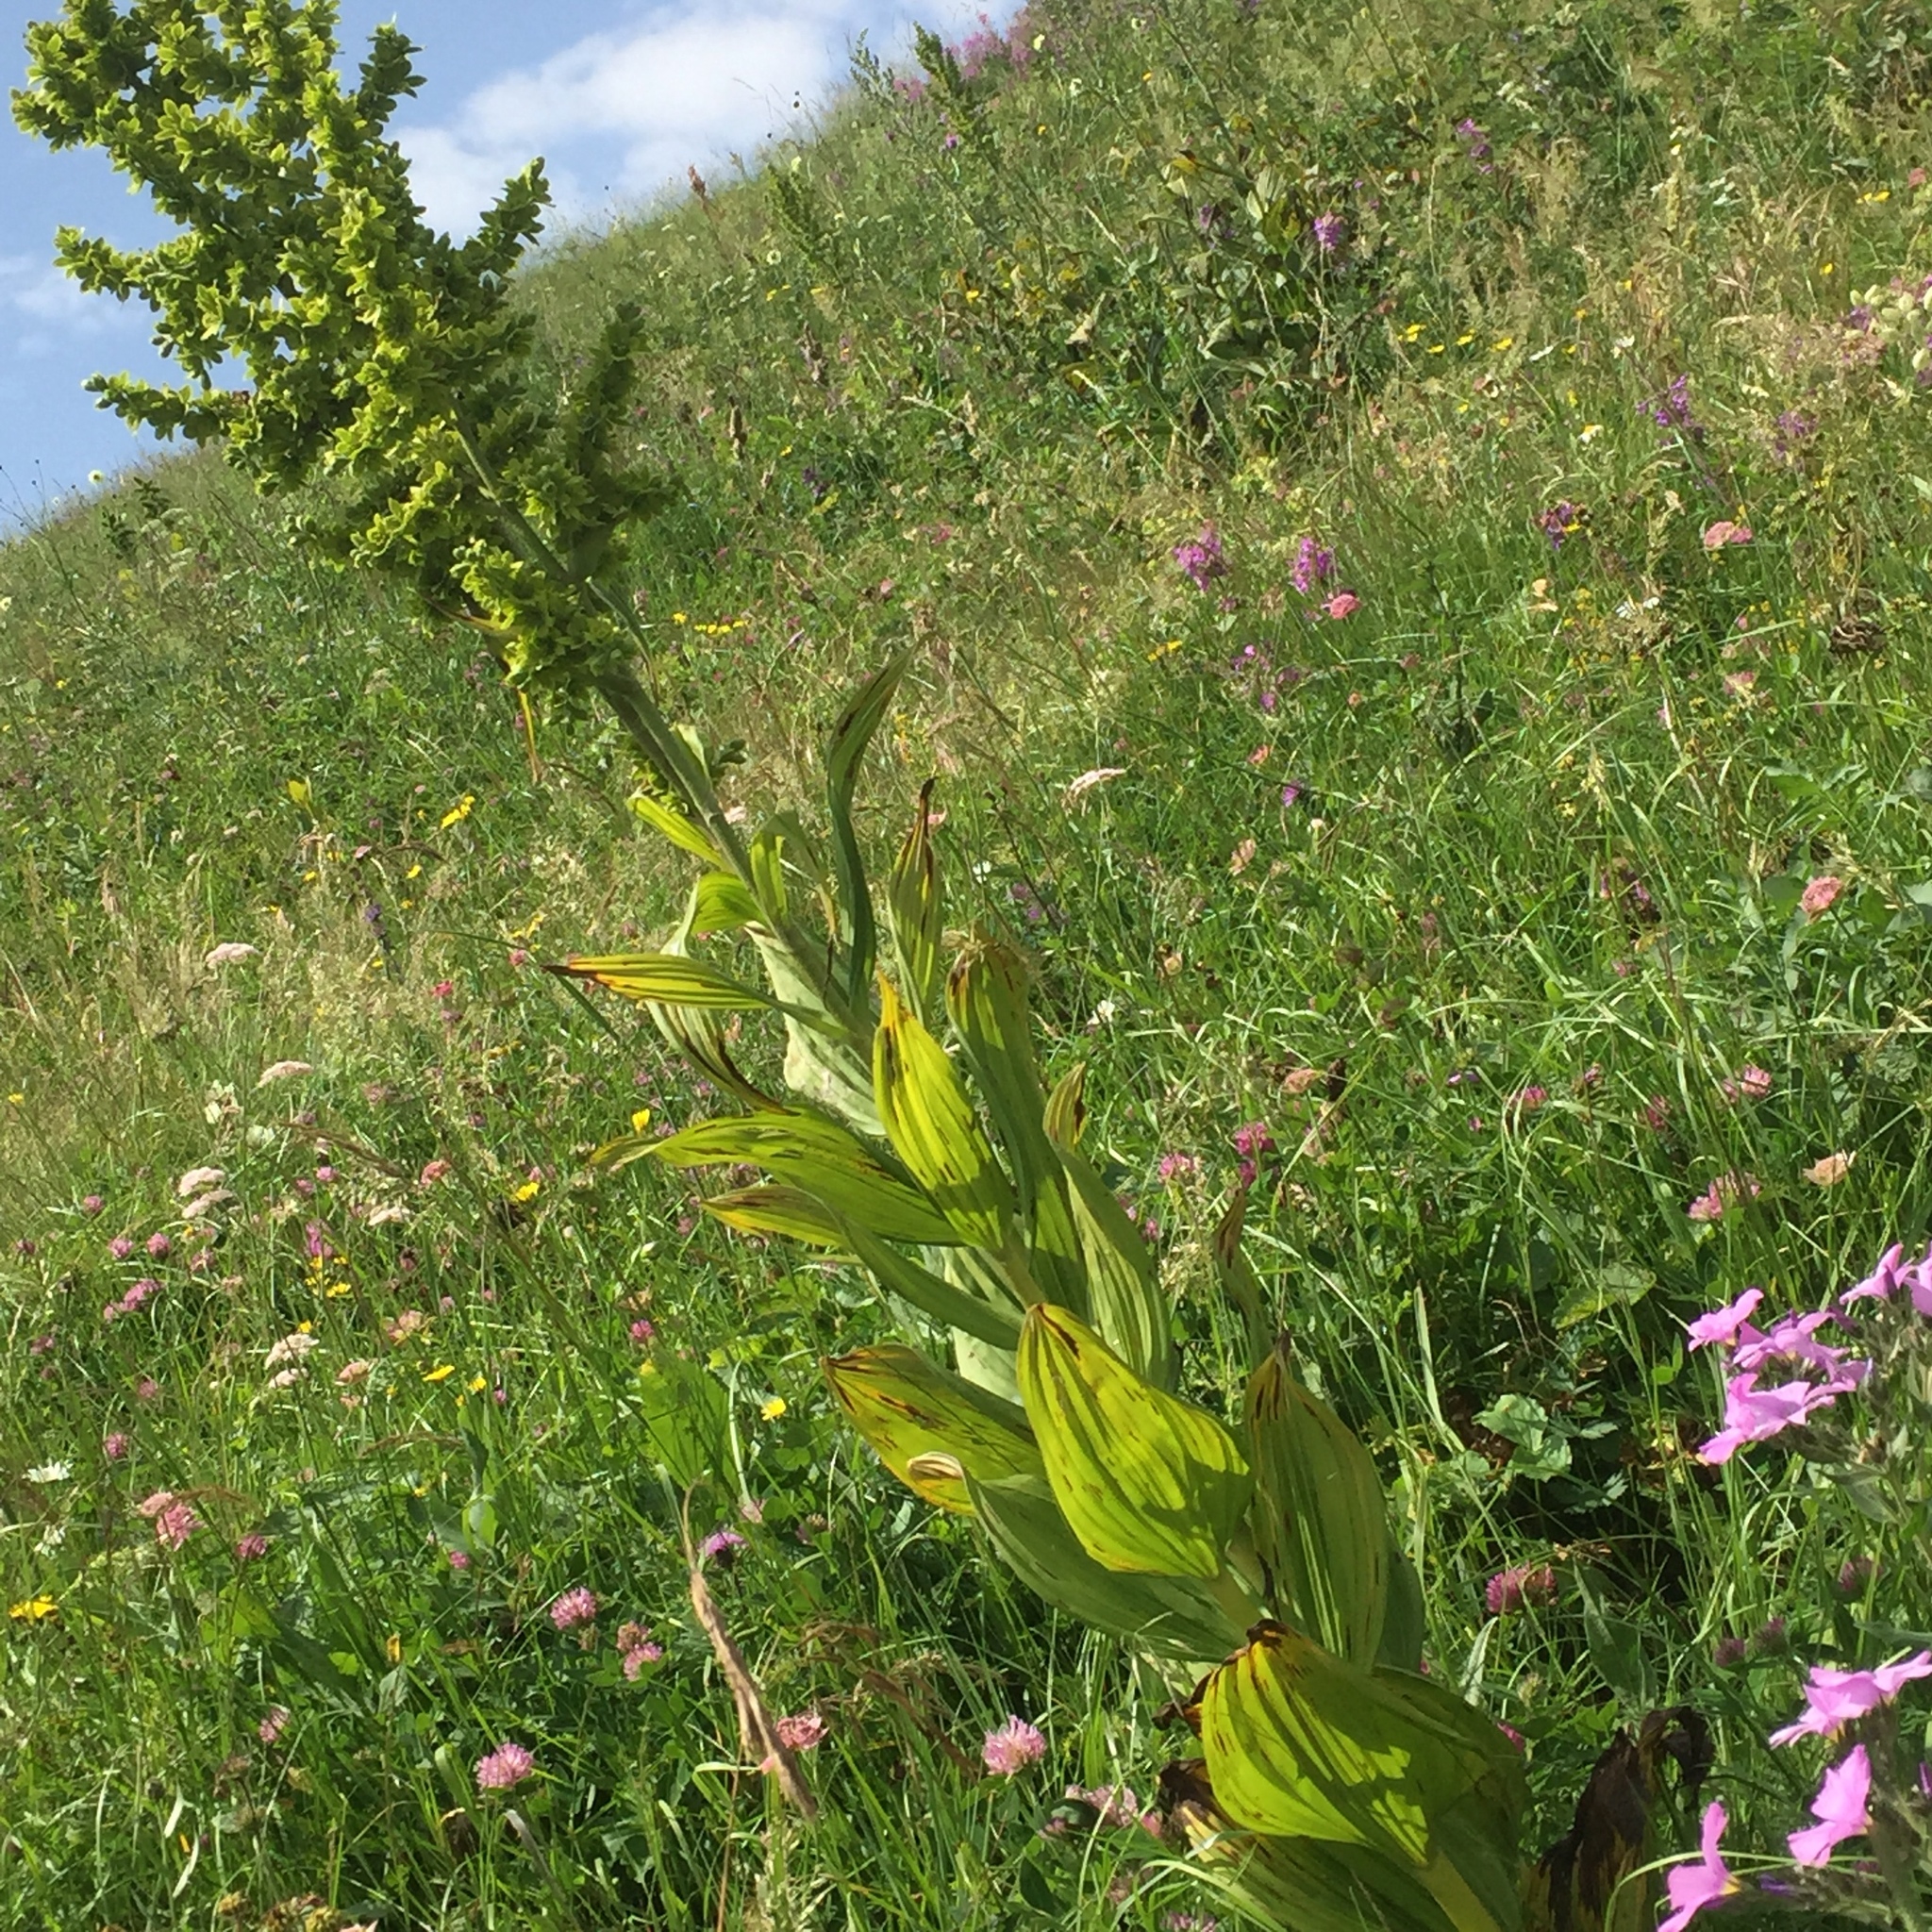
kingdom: Plantae
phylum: Tracheophyta
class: Liliopsida
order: Liliales
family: Melanthiaceae
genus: Veratrum
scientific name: Veratrum album
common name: White veratrum
